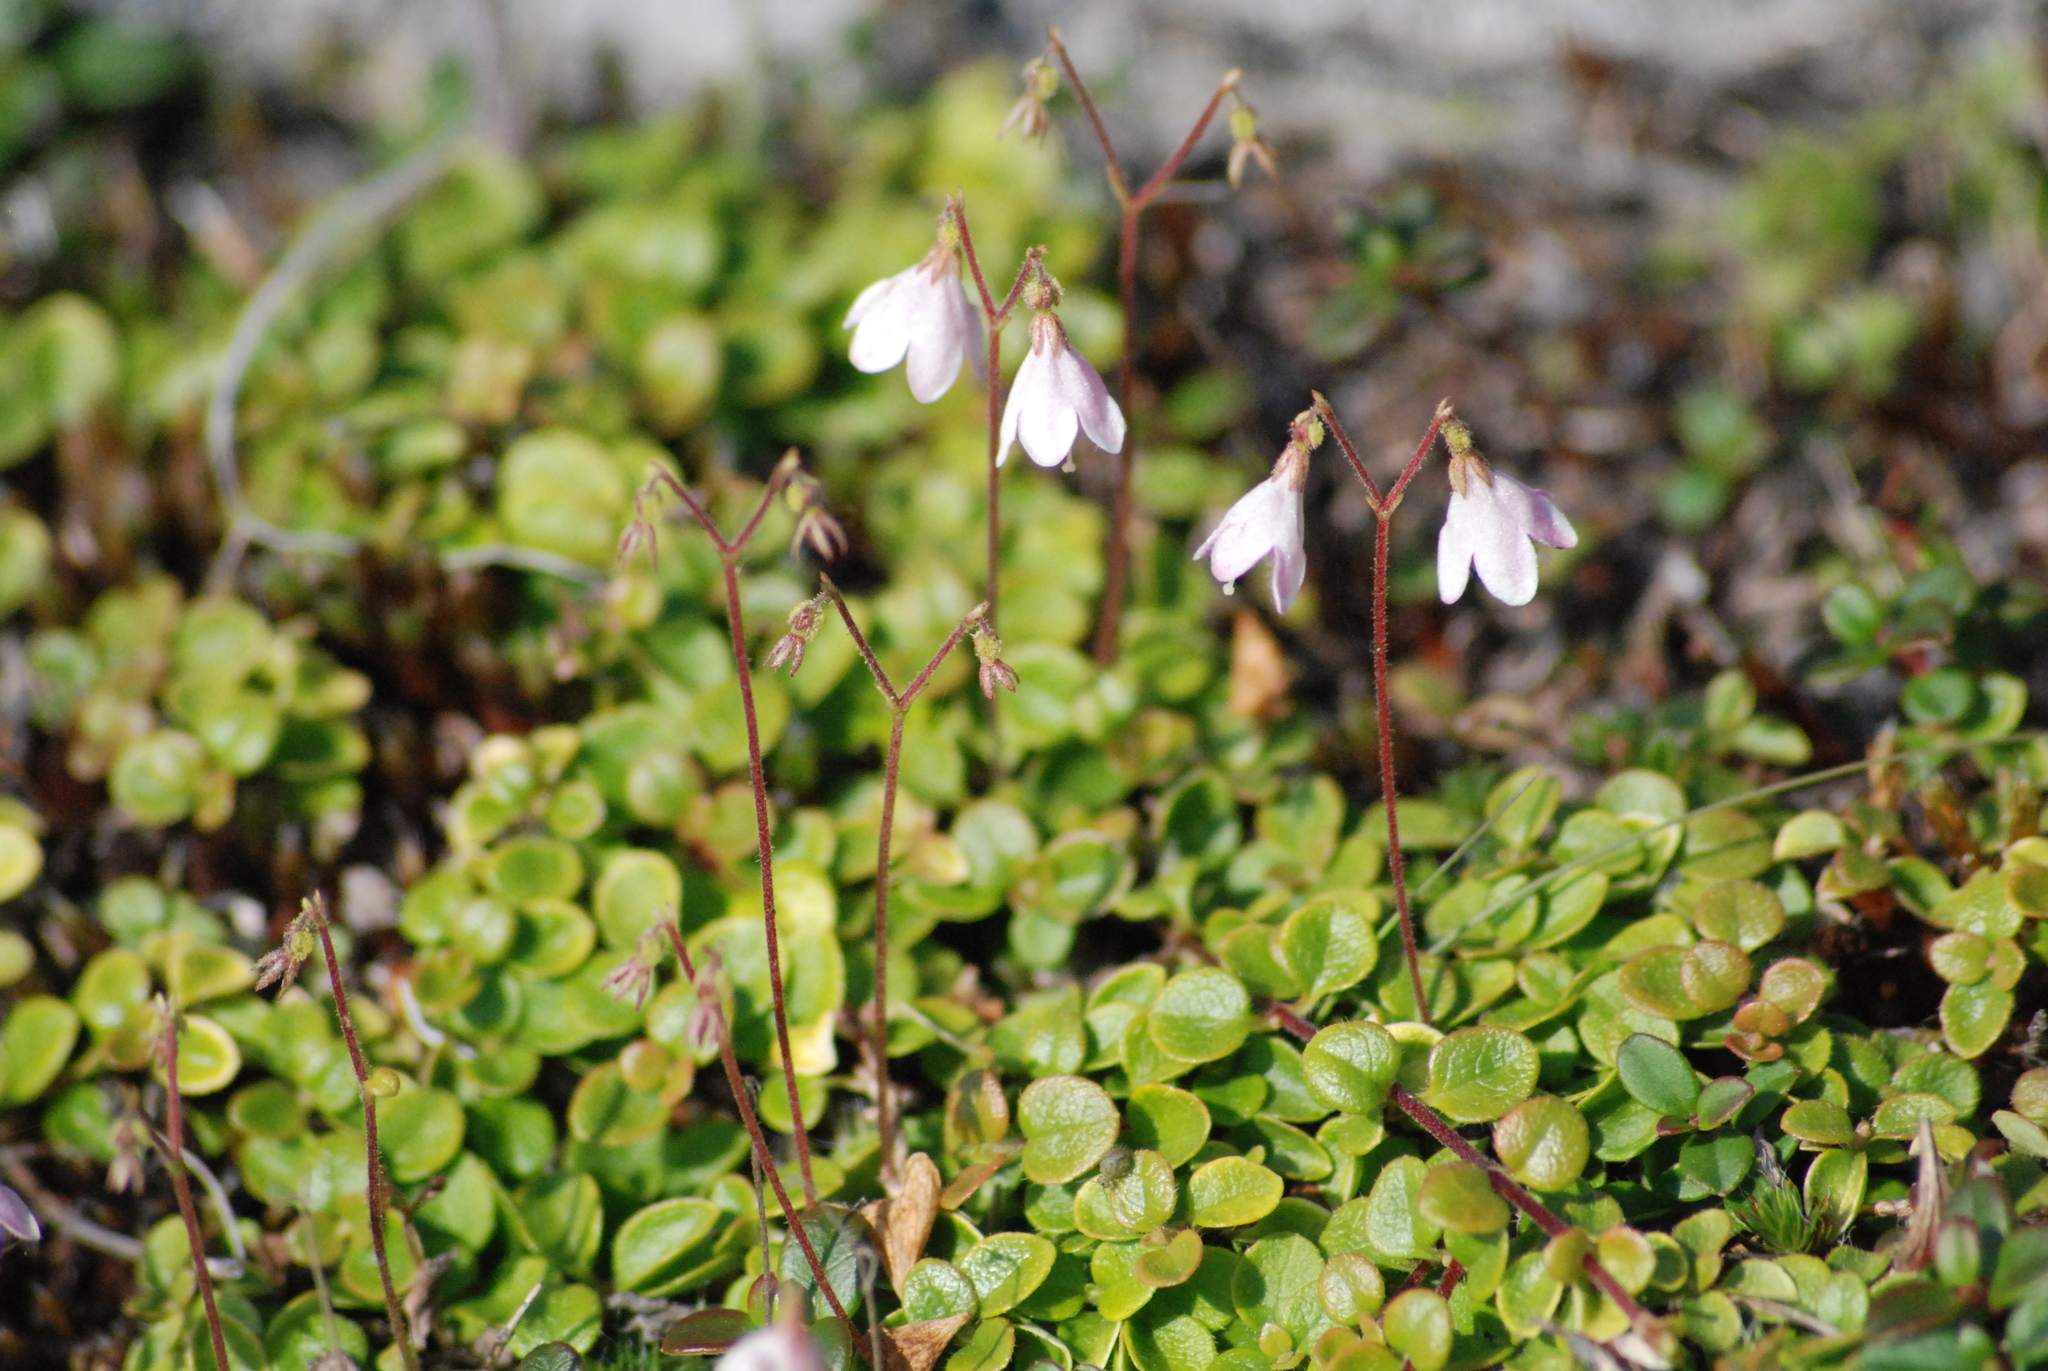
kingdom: Plantae
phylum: Tracheophyta
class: Magnoliopsida
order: Dipsacales
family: Caprifoliaceae
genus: Linnaea
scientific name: Linnaea borealis
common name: Twinflower
